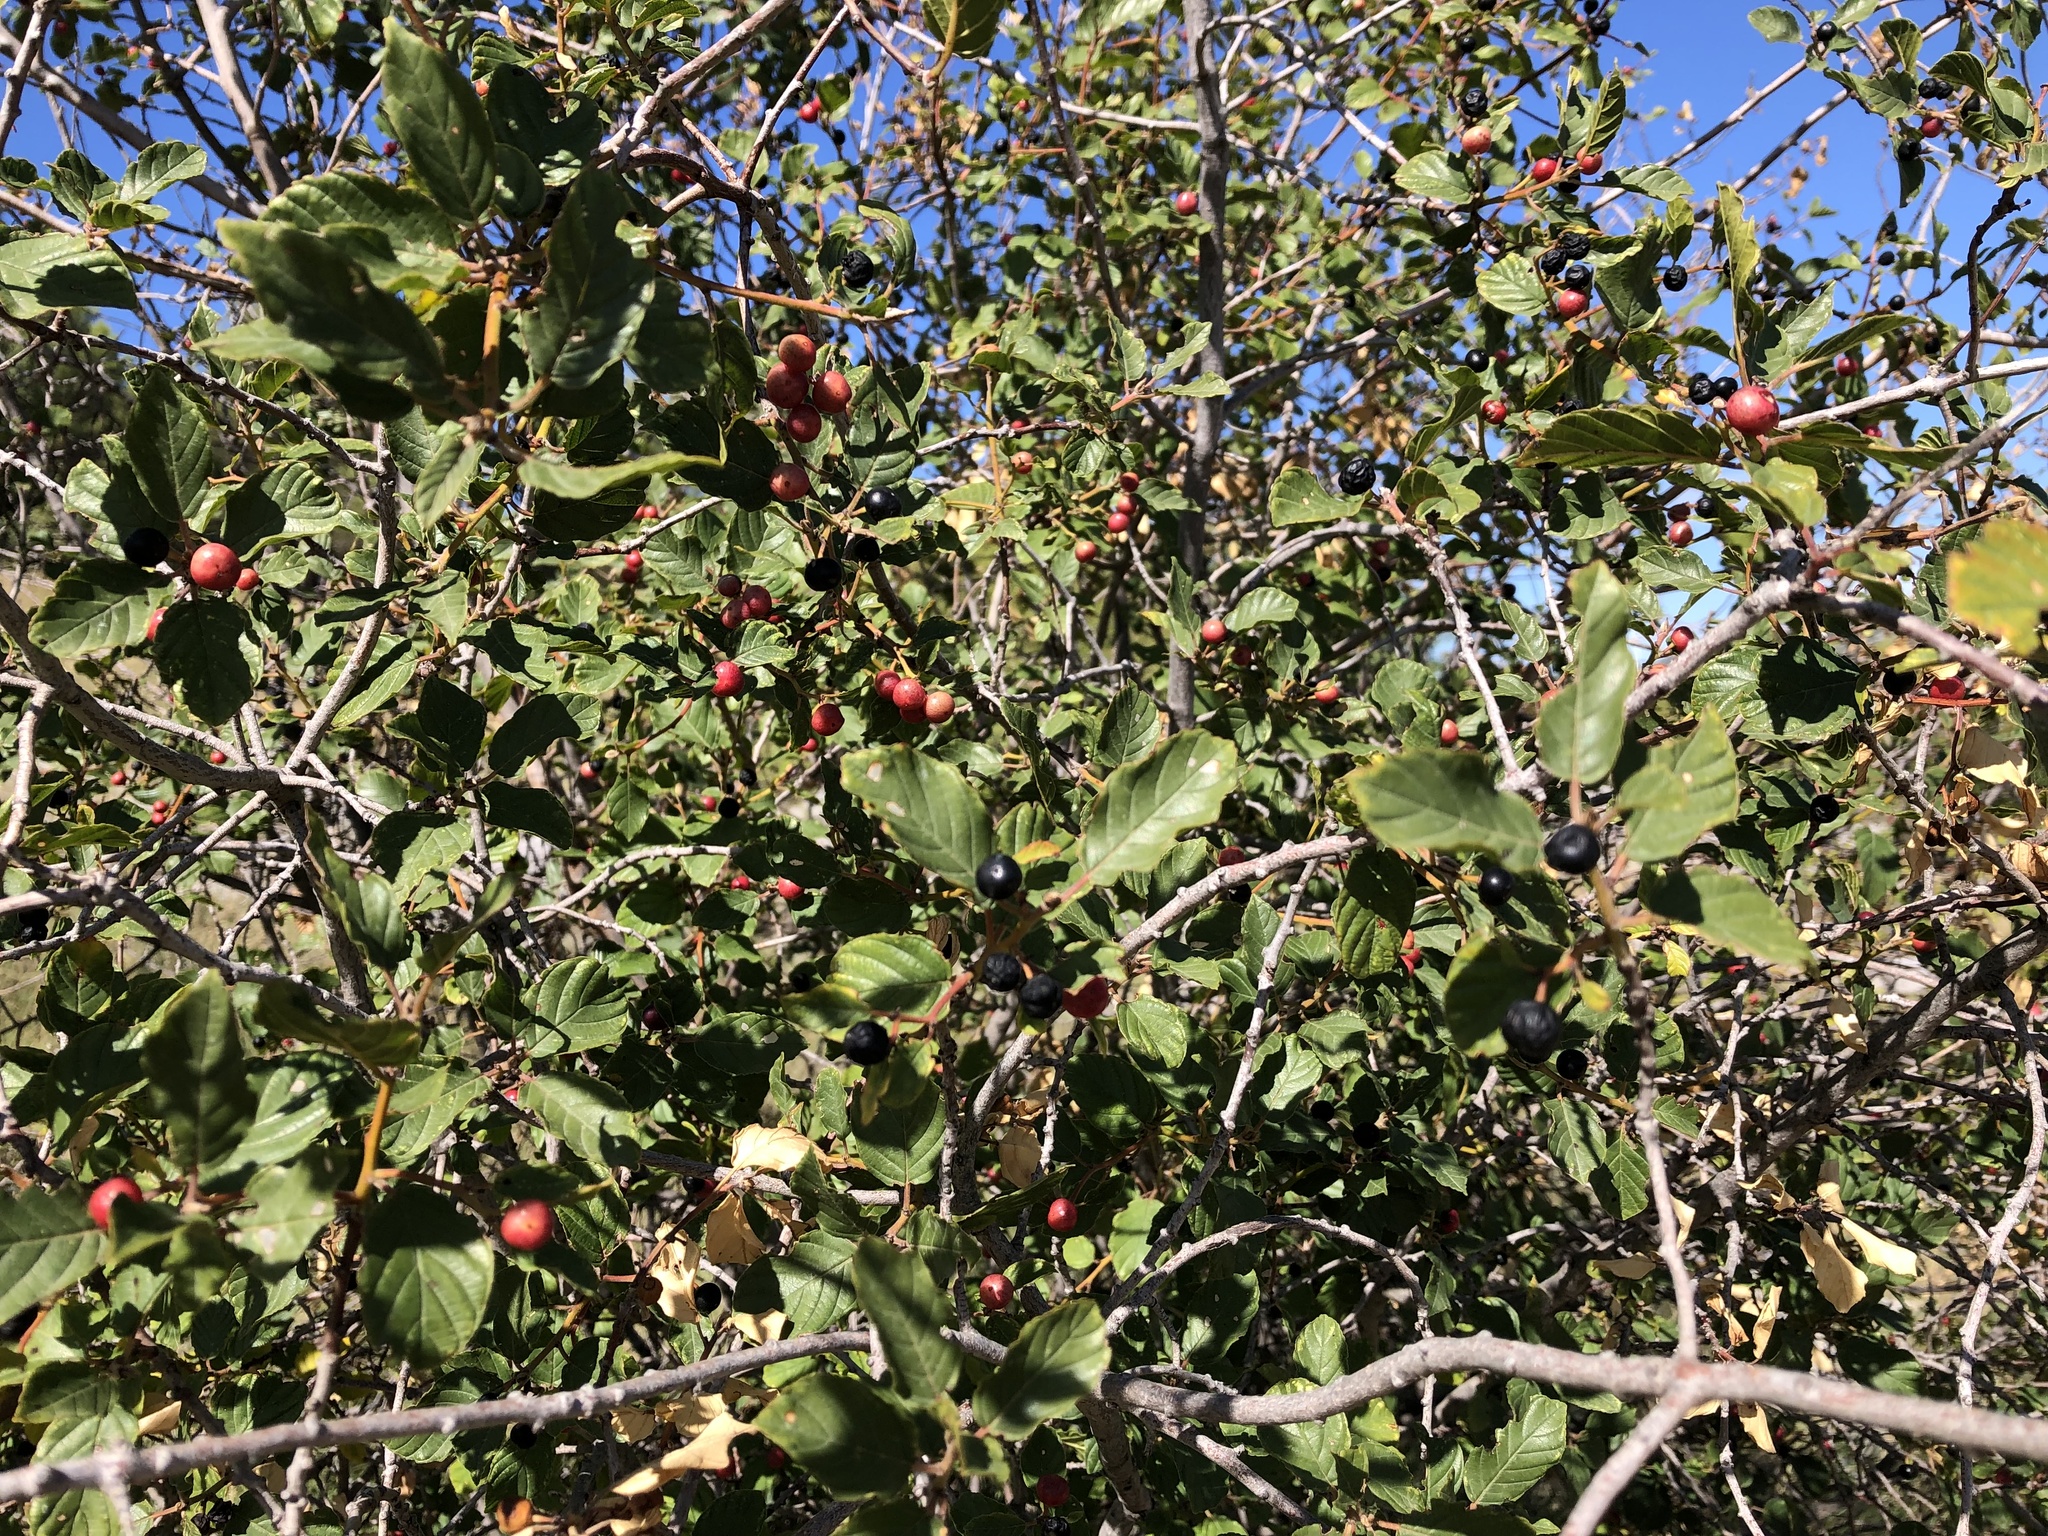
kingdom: Plantae
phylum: Tracheophyta
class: Magnoliopsida
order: Rosales
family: Rhamnaceae
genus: Frangula
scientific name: Frangula rupestris
